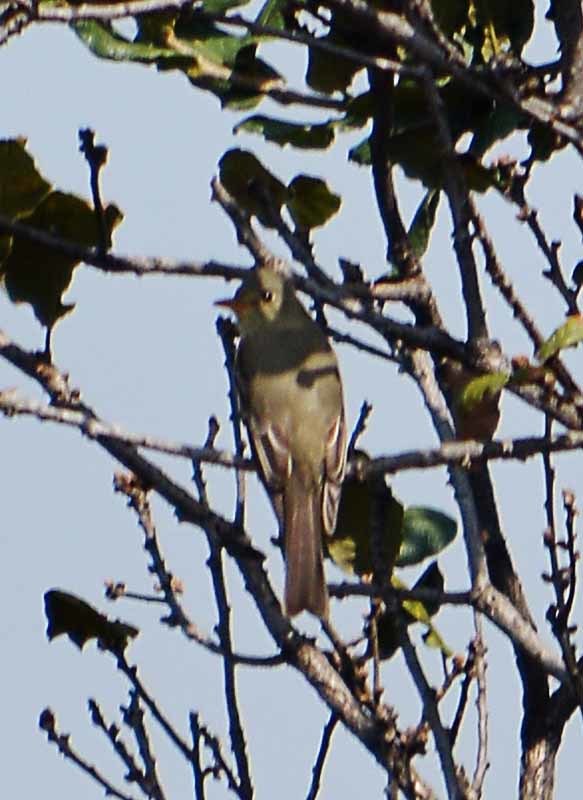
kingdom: Animalia
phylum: Chordata
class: Aves
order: Passeriformes
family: Tyrannidae
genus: Contopus
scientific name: Contopus pertinax
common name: Greater pewee
